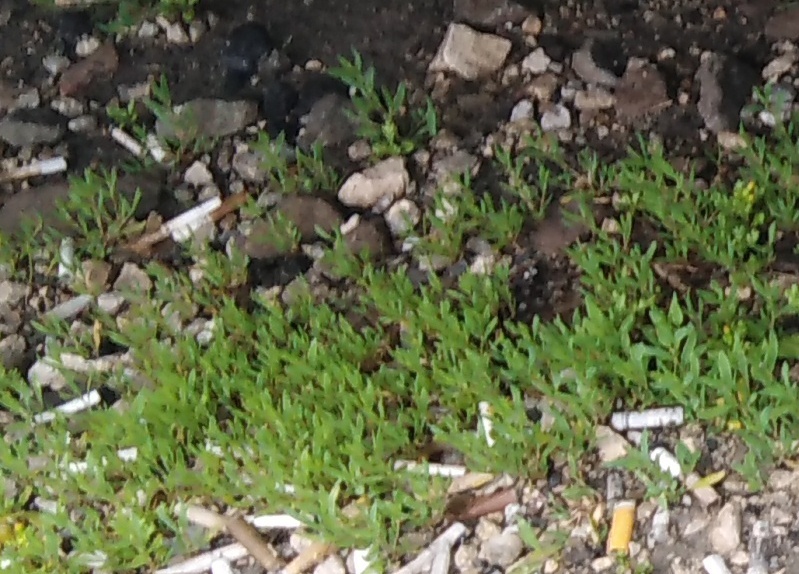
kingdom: Plantae
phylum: Tracheophyta
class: Magnoliopsida
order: Caryophyllales
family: Polygonaceae
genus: Polygonum
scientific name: Polygonum
